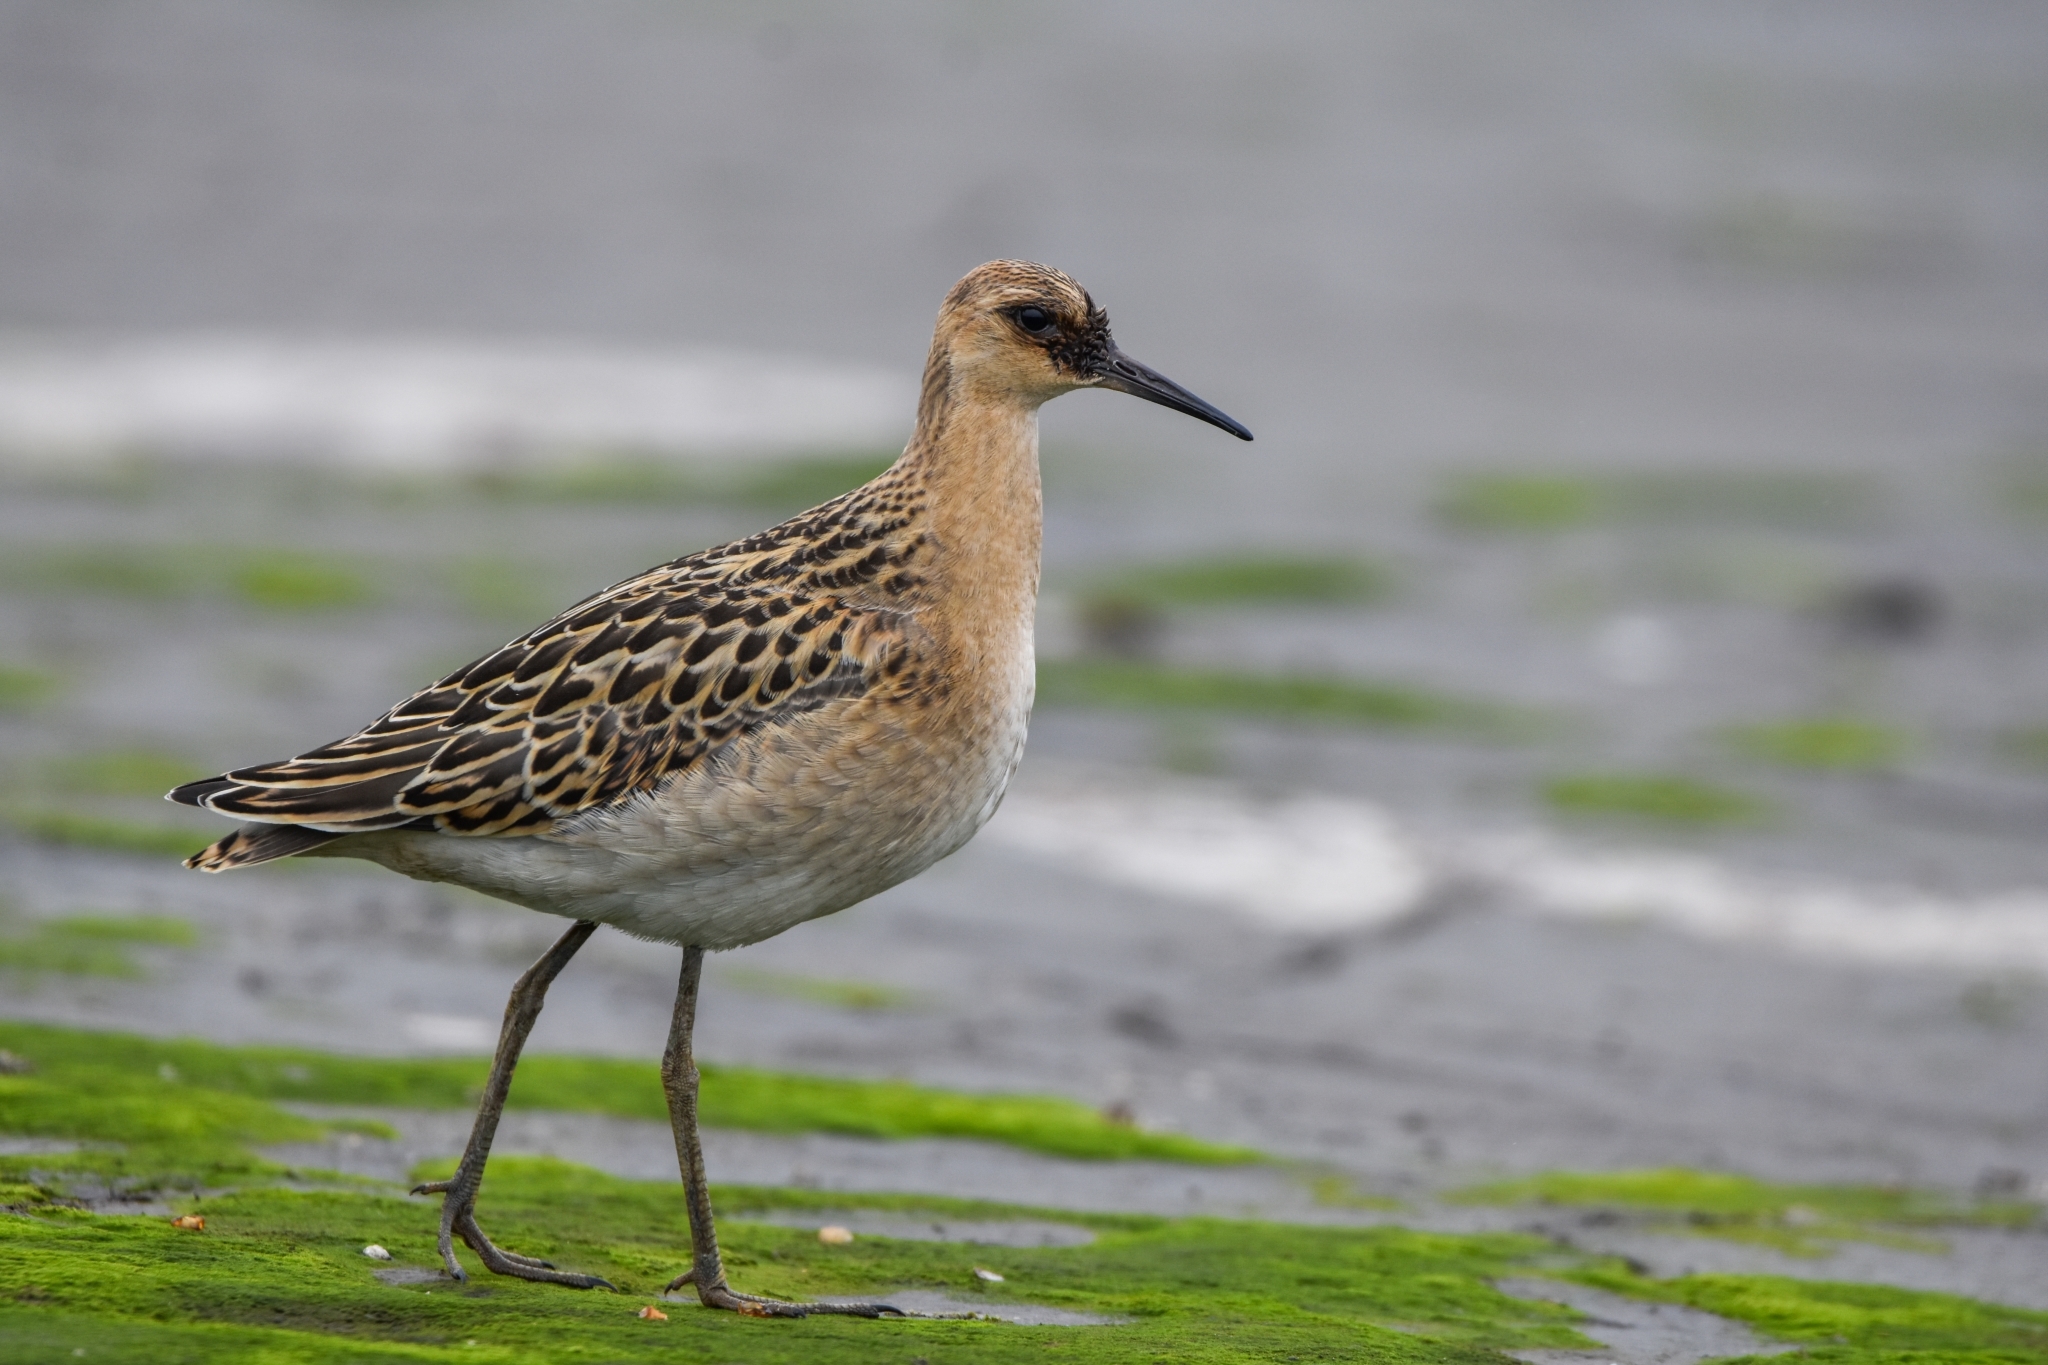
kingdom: Animalia
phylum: Chordata
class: Aves
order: Charadriiformes
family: Scolopacidae
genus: Calidris
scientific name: Calidris pugnax
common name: Ruff
